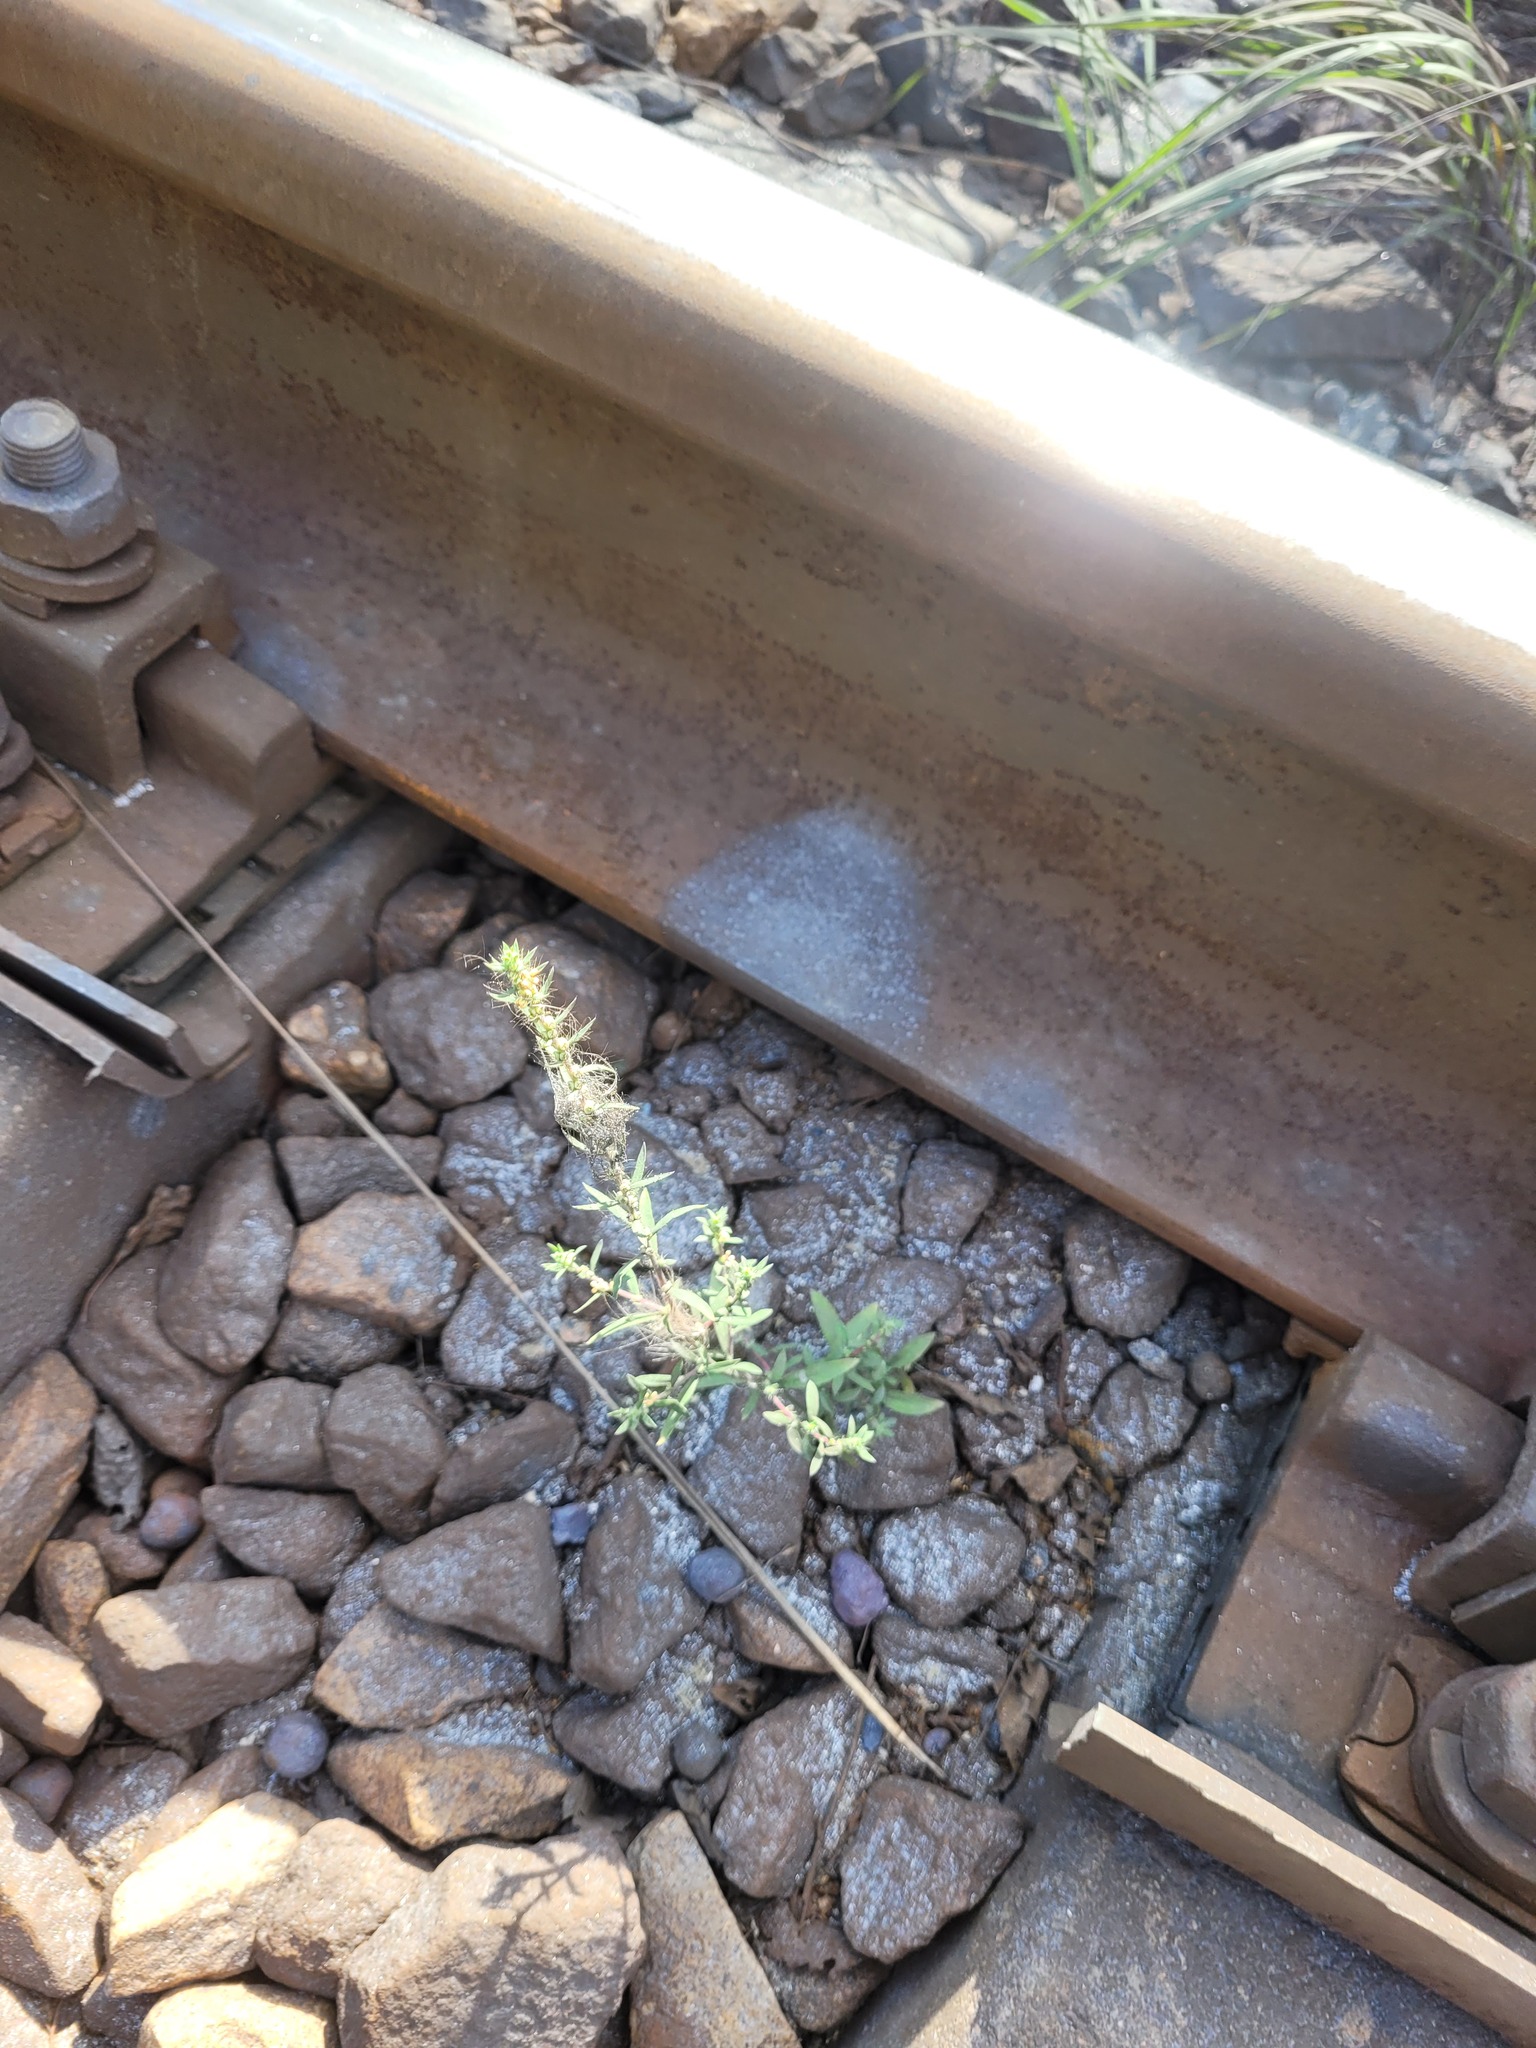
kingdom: Plantae
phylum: Tracheophyta
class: Magnoliopsida
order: Caryophyllales
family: Amaranthaceae
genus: Bassia
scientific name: Bassia scoparia
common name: Belvedere
